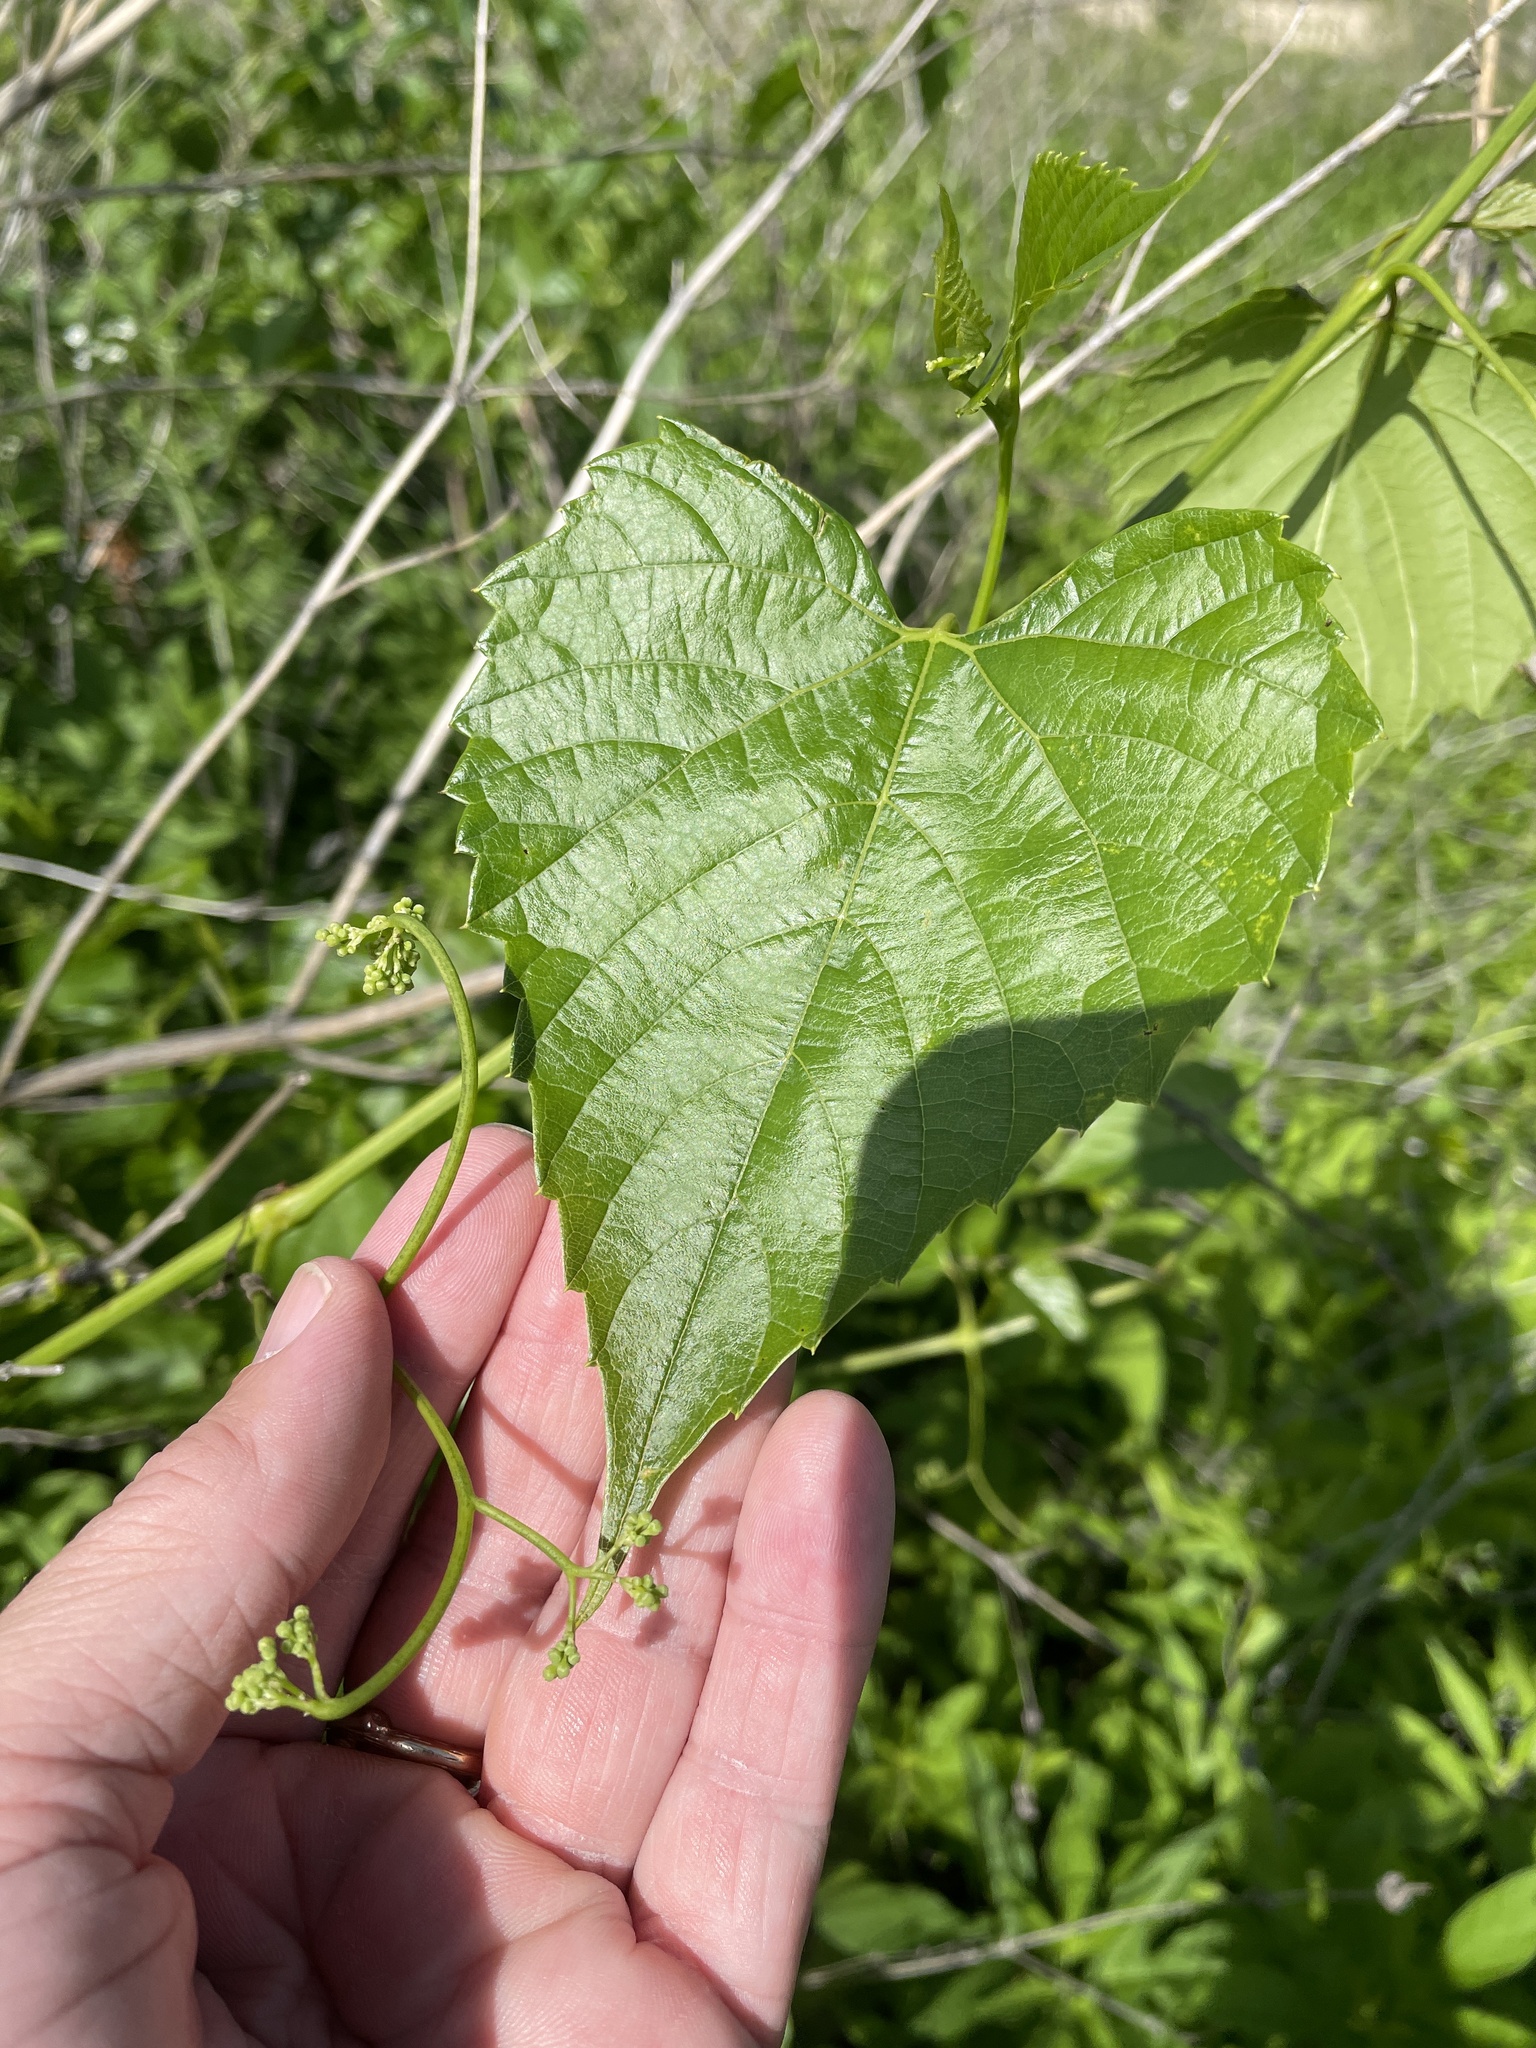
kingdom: Plantae
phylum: Tracheophyta
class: Magnoliopsida
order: Vitales
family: Vitaceae
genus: Ampelopsis
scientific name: Ampelopsis cordata
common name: Heart-leaf ampelopsis
